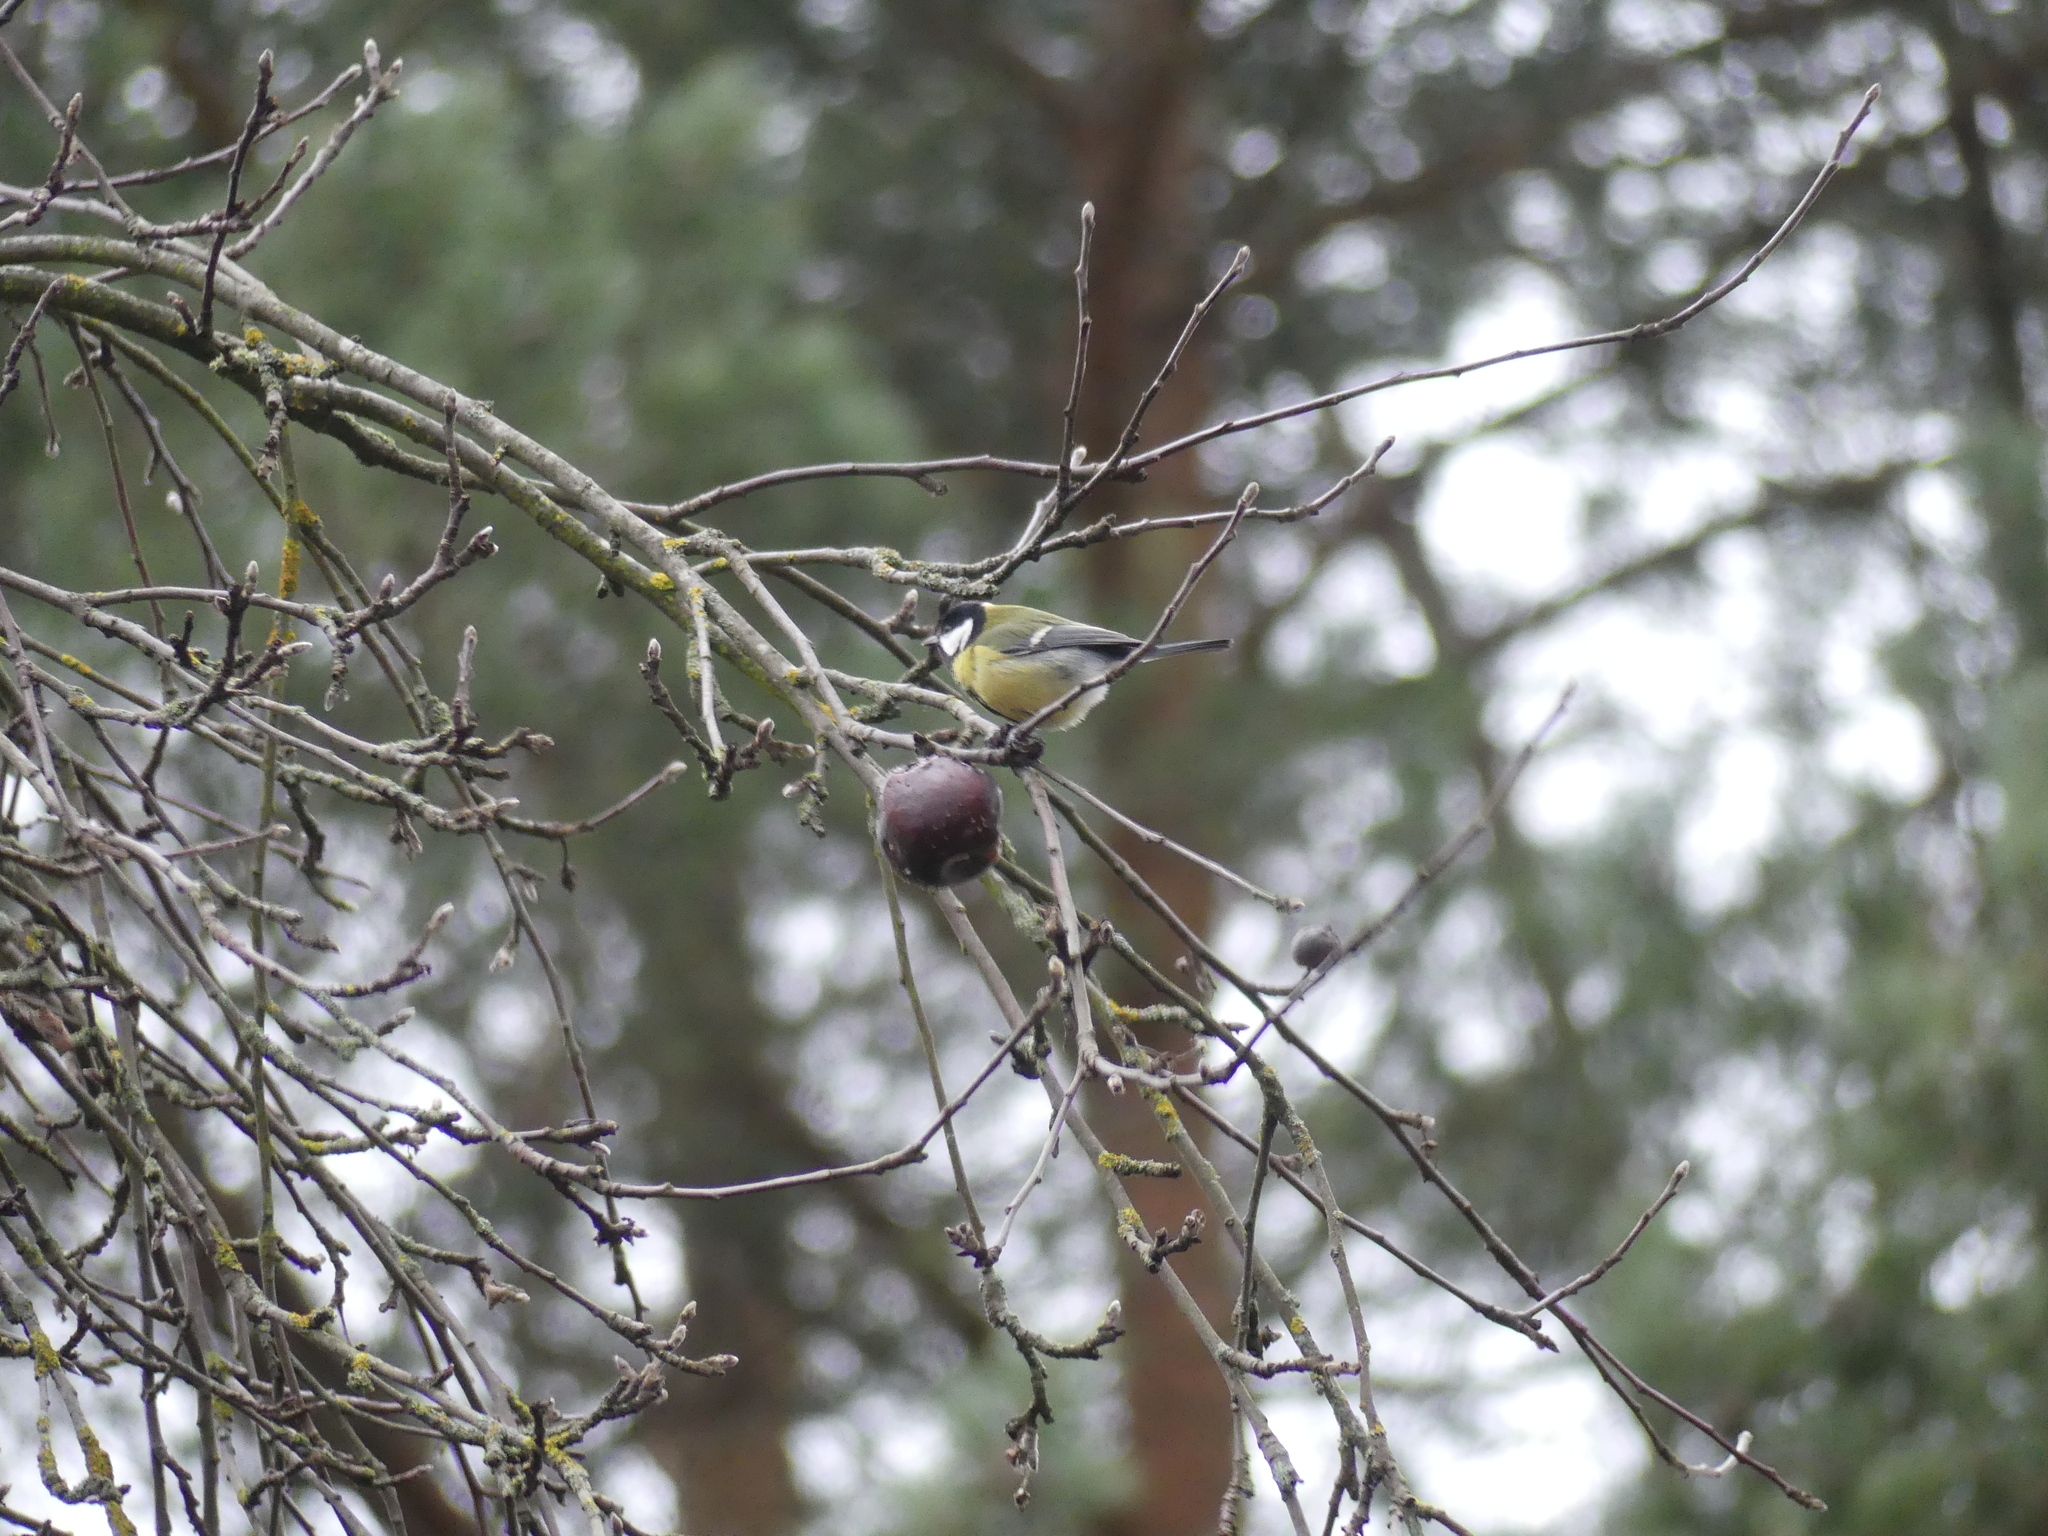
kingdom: Animalia
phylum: Chordata
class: Aves
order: Passeriformes
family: Paridae
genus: Parus
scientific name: Parus major
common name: Great tit
